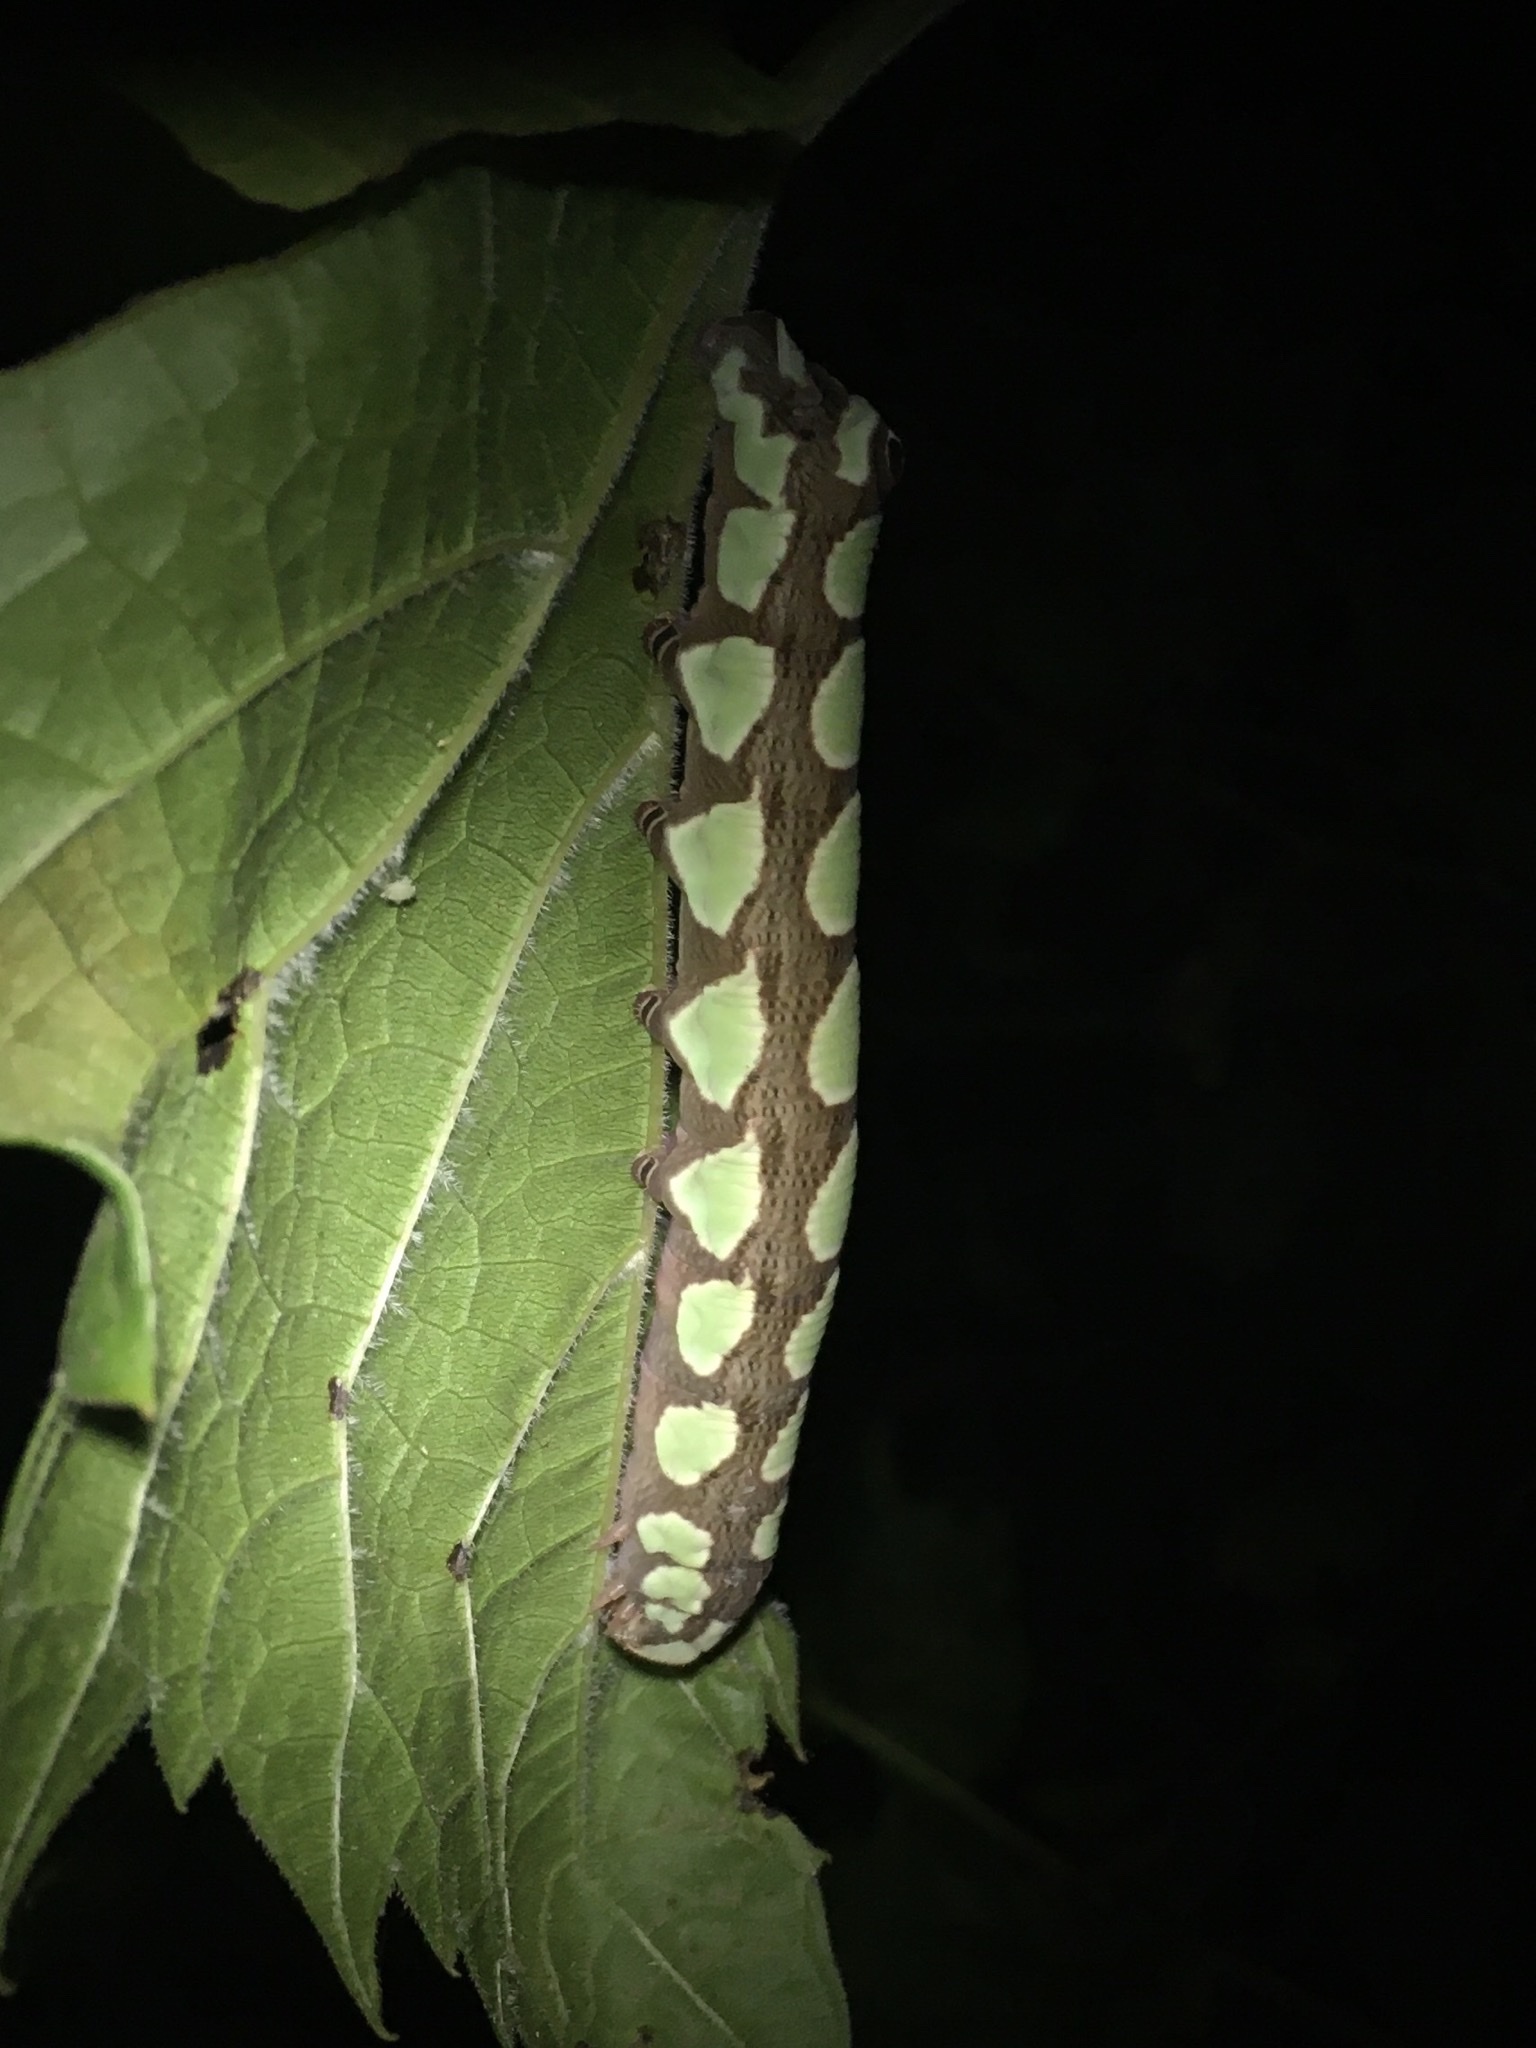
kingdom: Animalia
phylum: Arthropoda
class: Insecta
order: Lepidoptera
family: Sphingidae
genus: Sphecodina
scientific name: Sphecodina abbottii
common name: Abbott's sphinx
